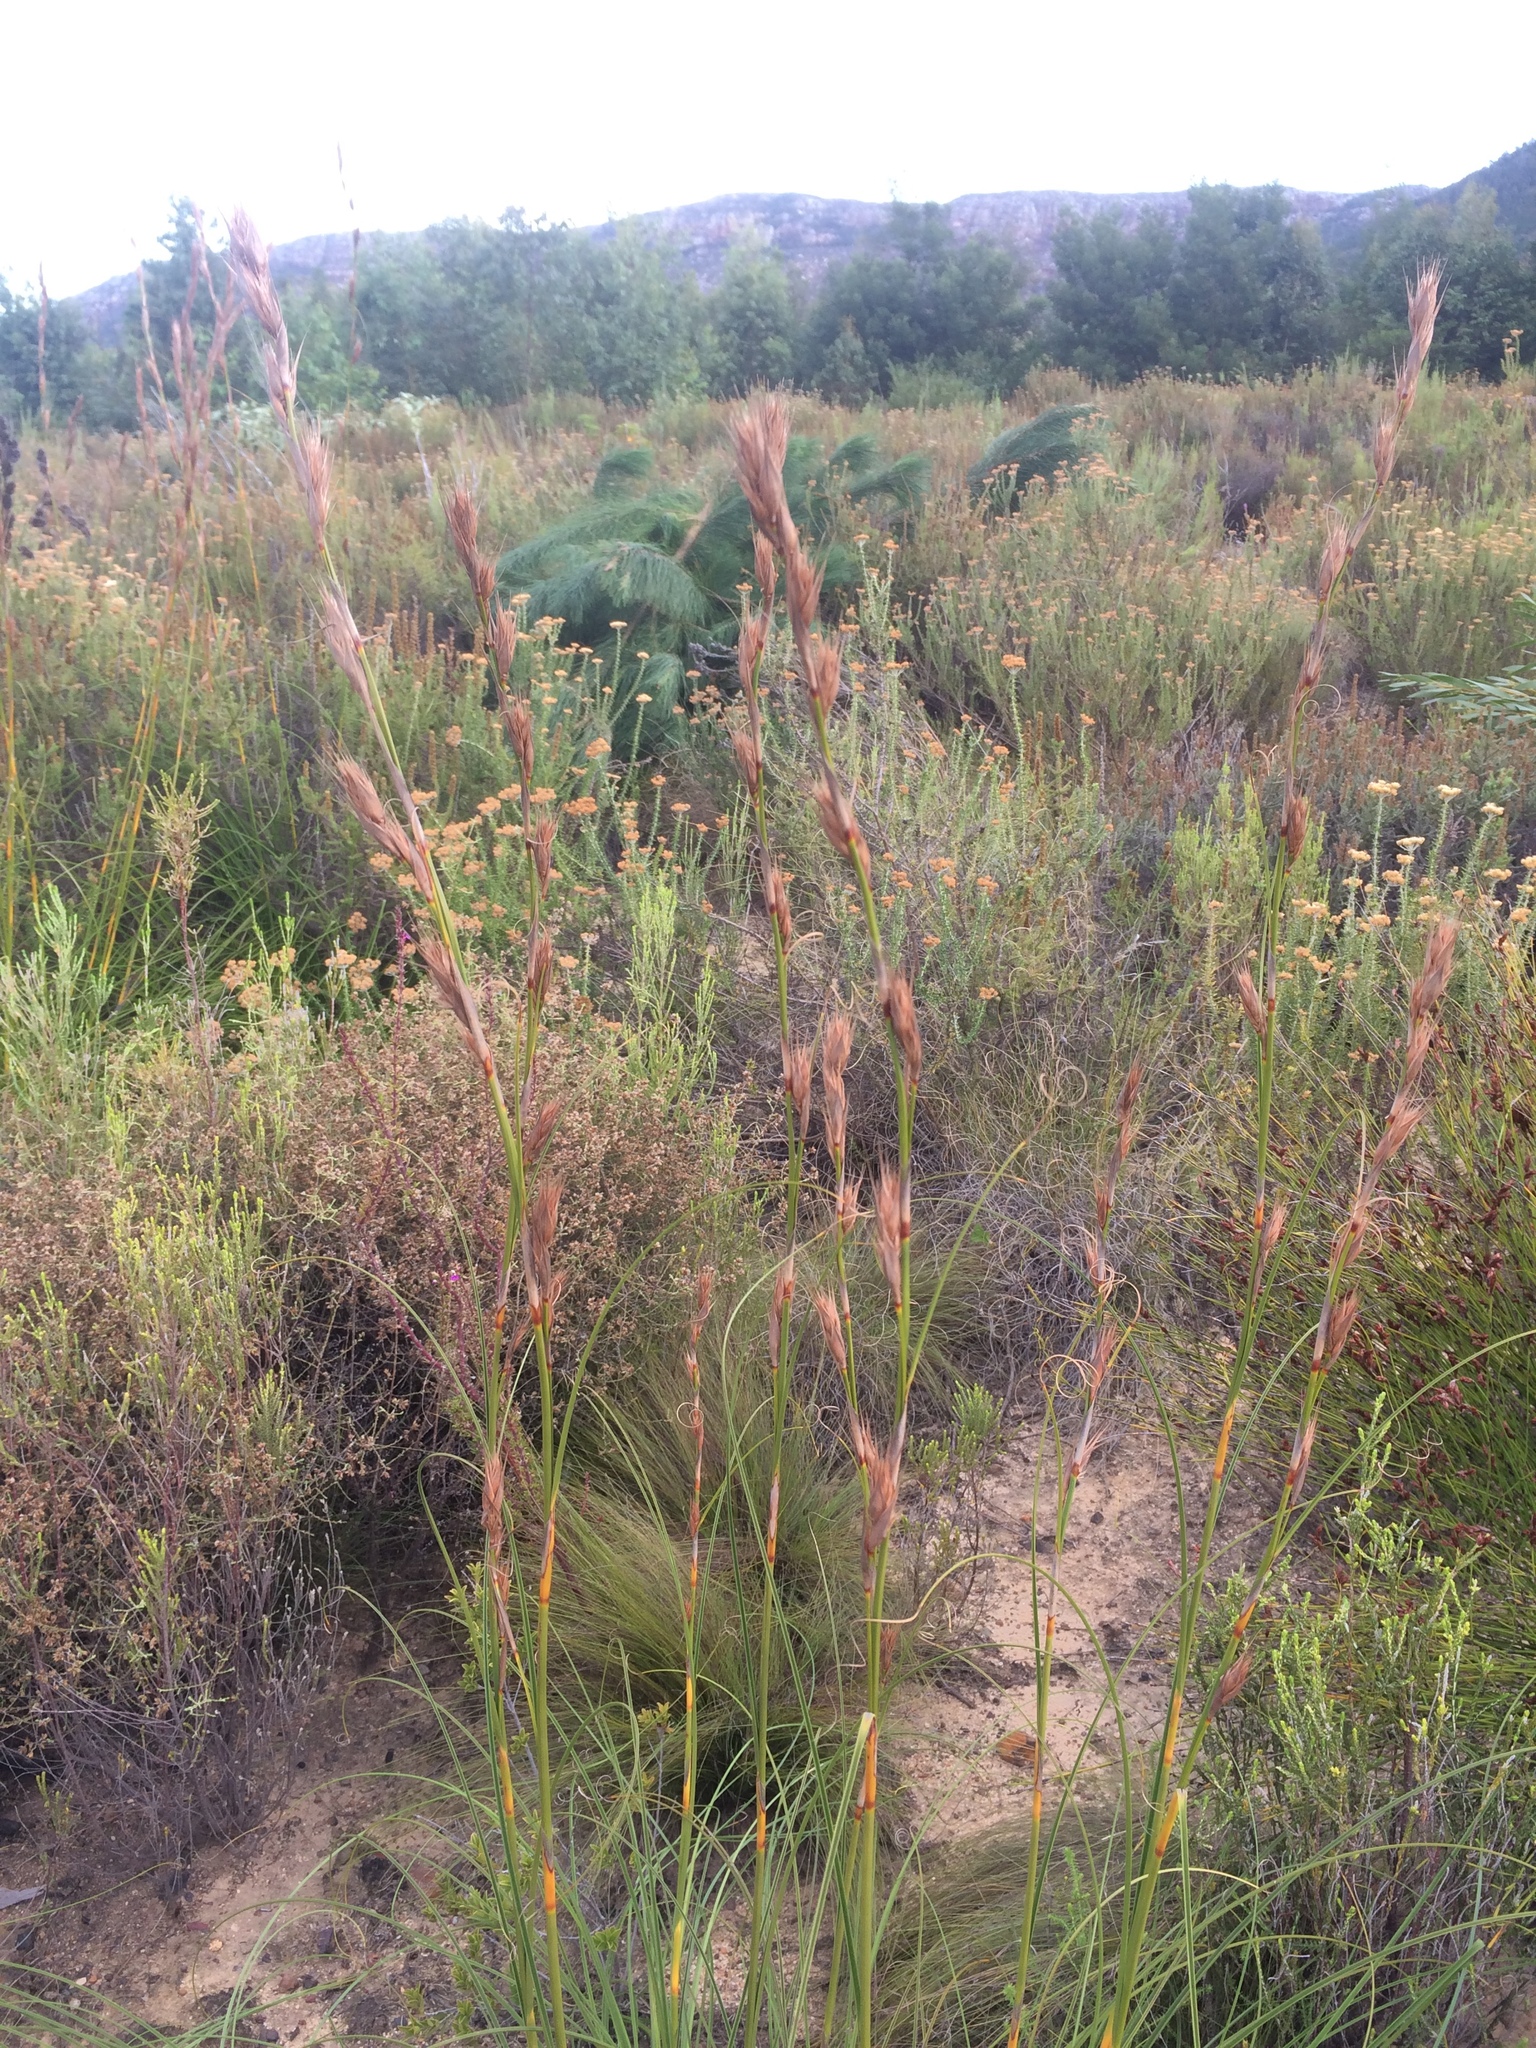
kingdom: Plantae
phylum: Tracheophyta
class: Liliopsida
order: Poales
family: Cyperaceae
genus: Tetraria
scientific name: Tetraria bromoides
